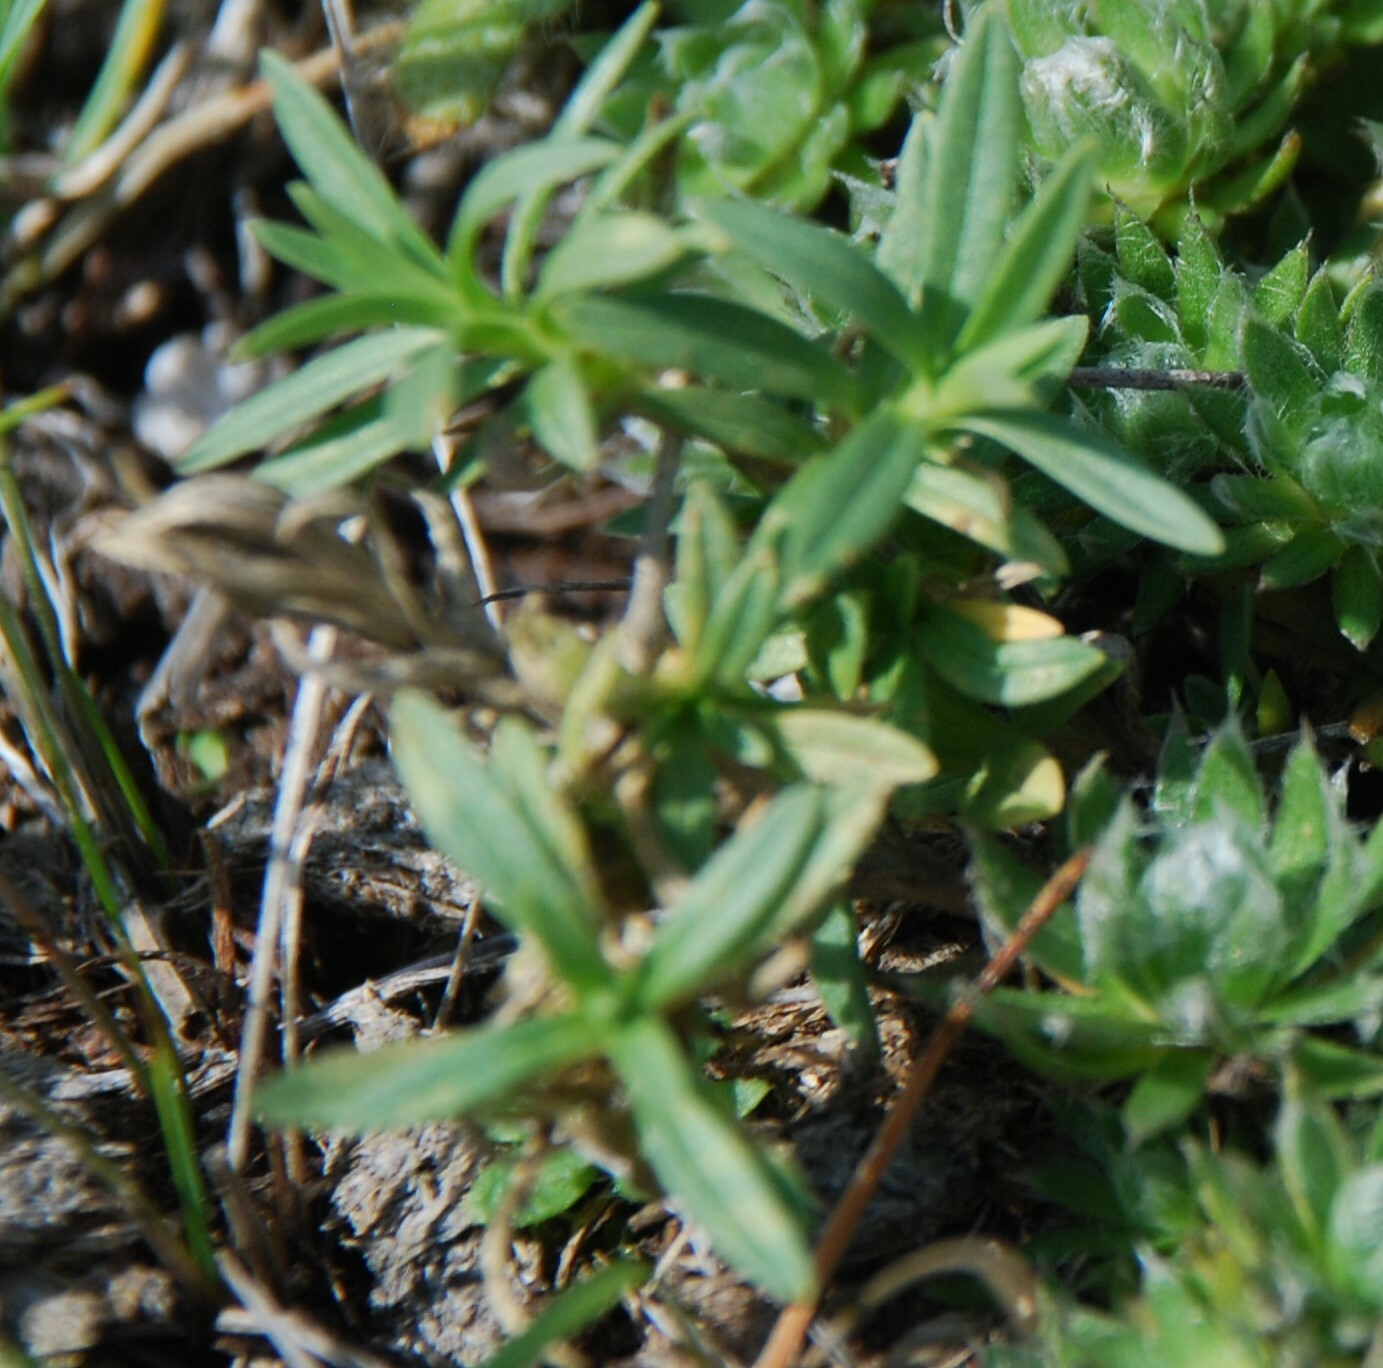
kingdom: Plantae
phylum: Tracheophyta
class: Magnoliopsida
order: Caryophyllales
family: Caryophyllaceae
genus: Cerastium
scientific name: Cerastium arvense
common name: Field mouse-ear
